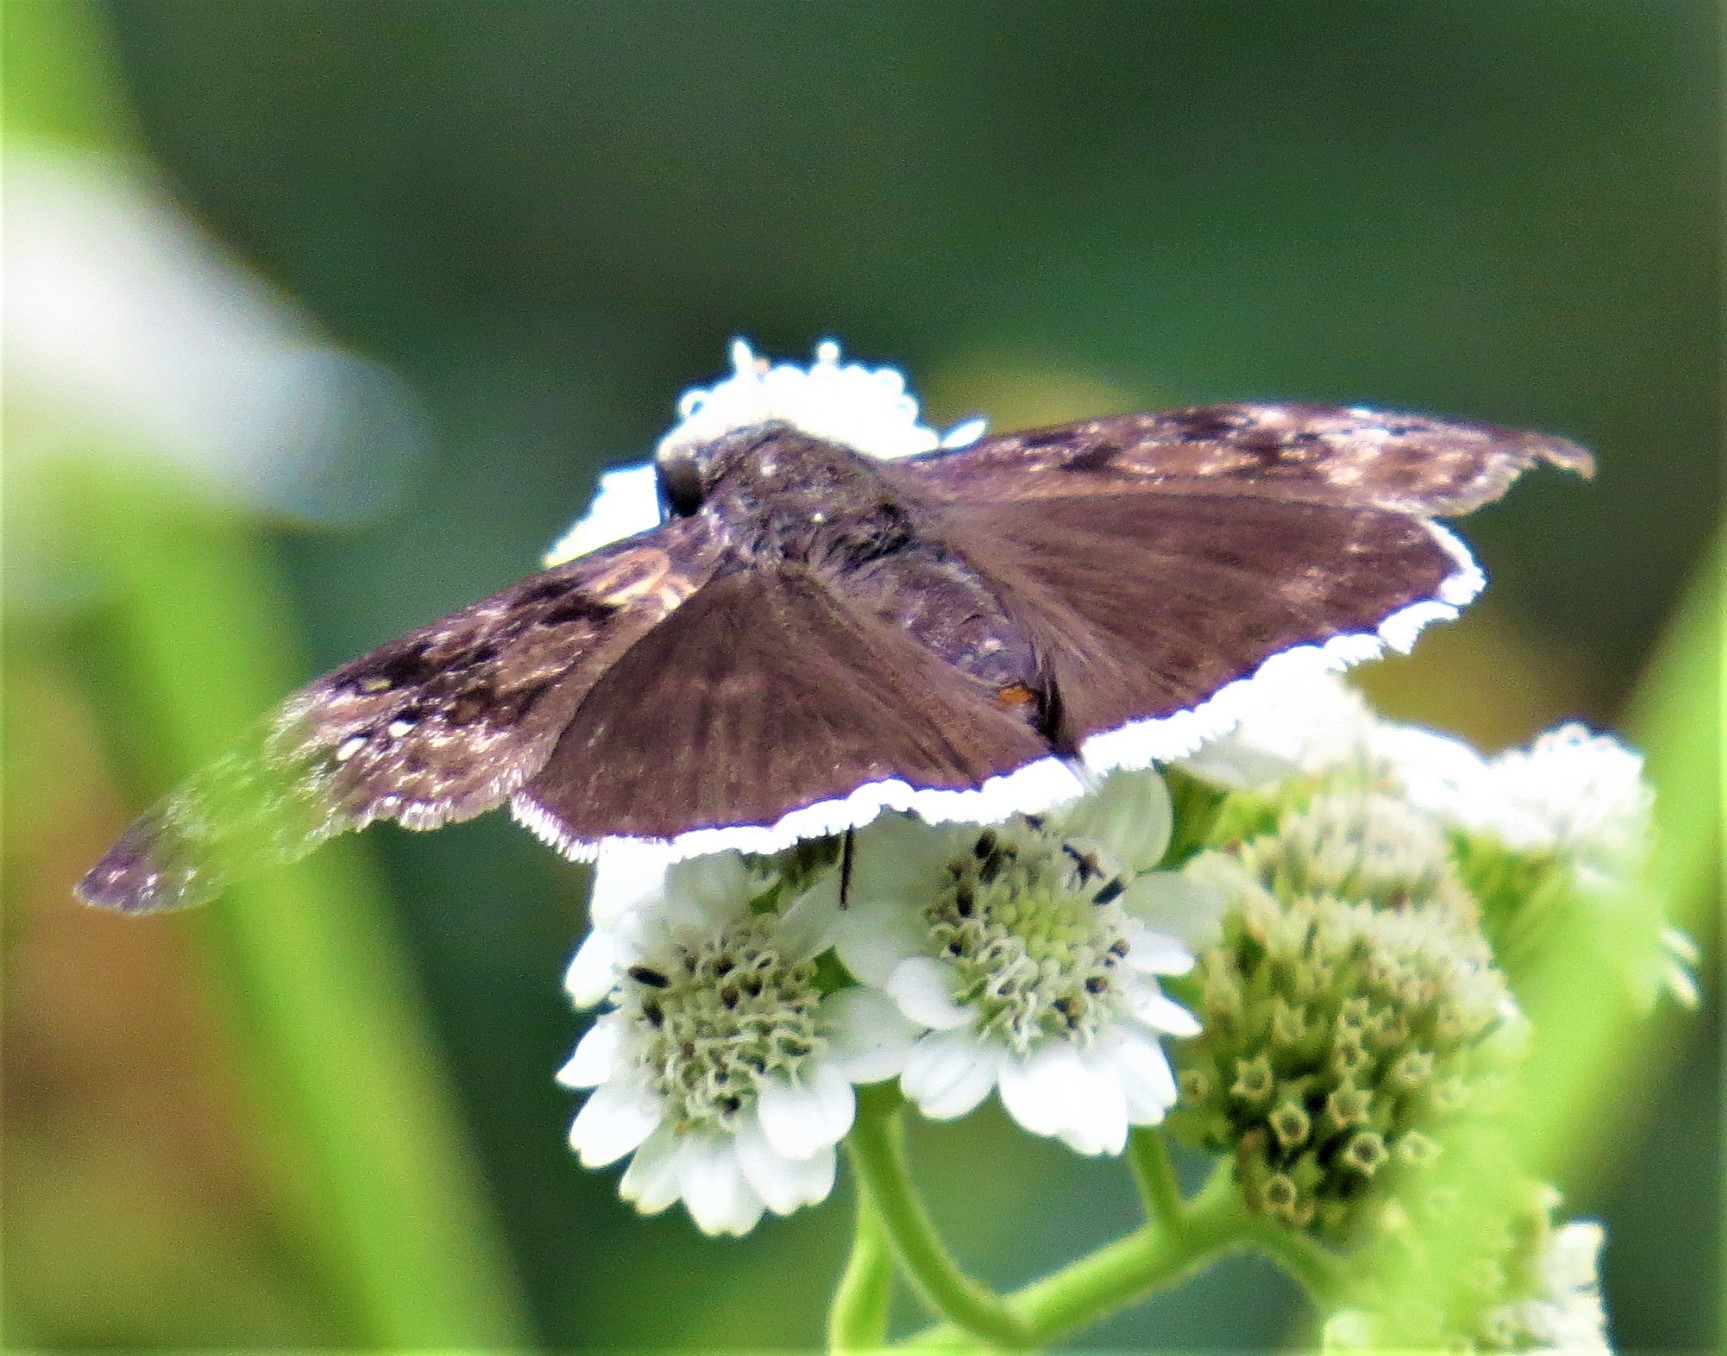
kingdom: Animalia
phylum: Arthropoda
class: Insecta
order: Lepidoptera
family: Hesperiidae
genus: Erynnis
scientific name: Erynnis tristis
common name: Mournful duskywing
